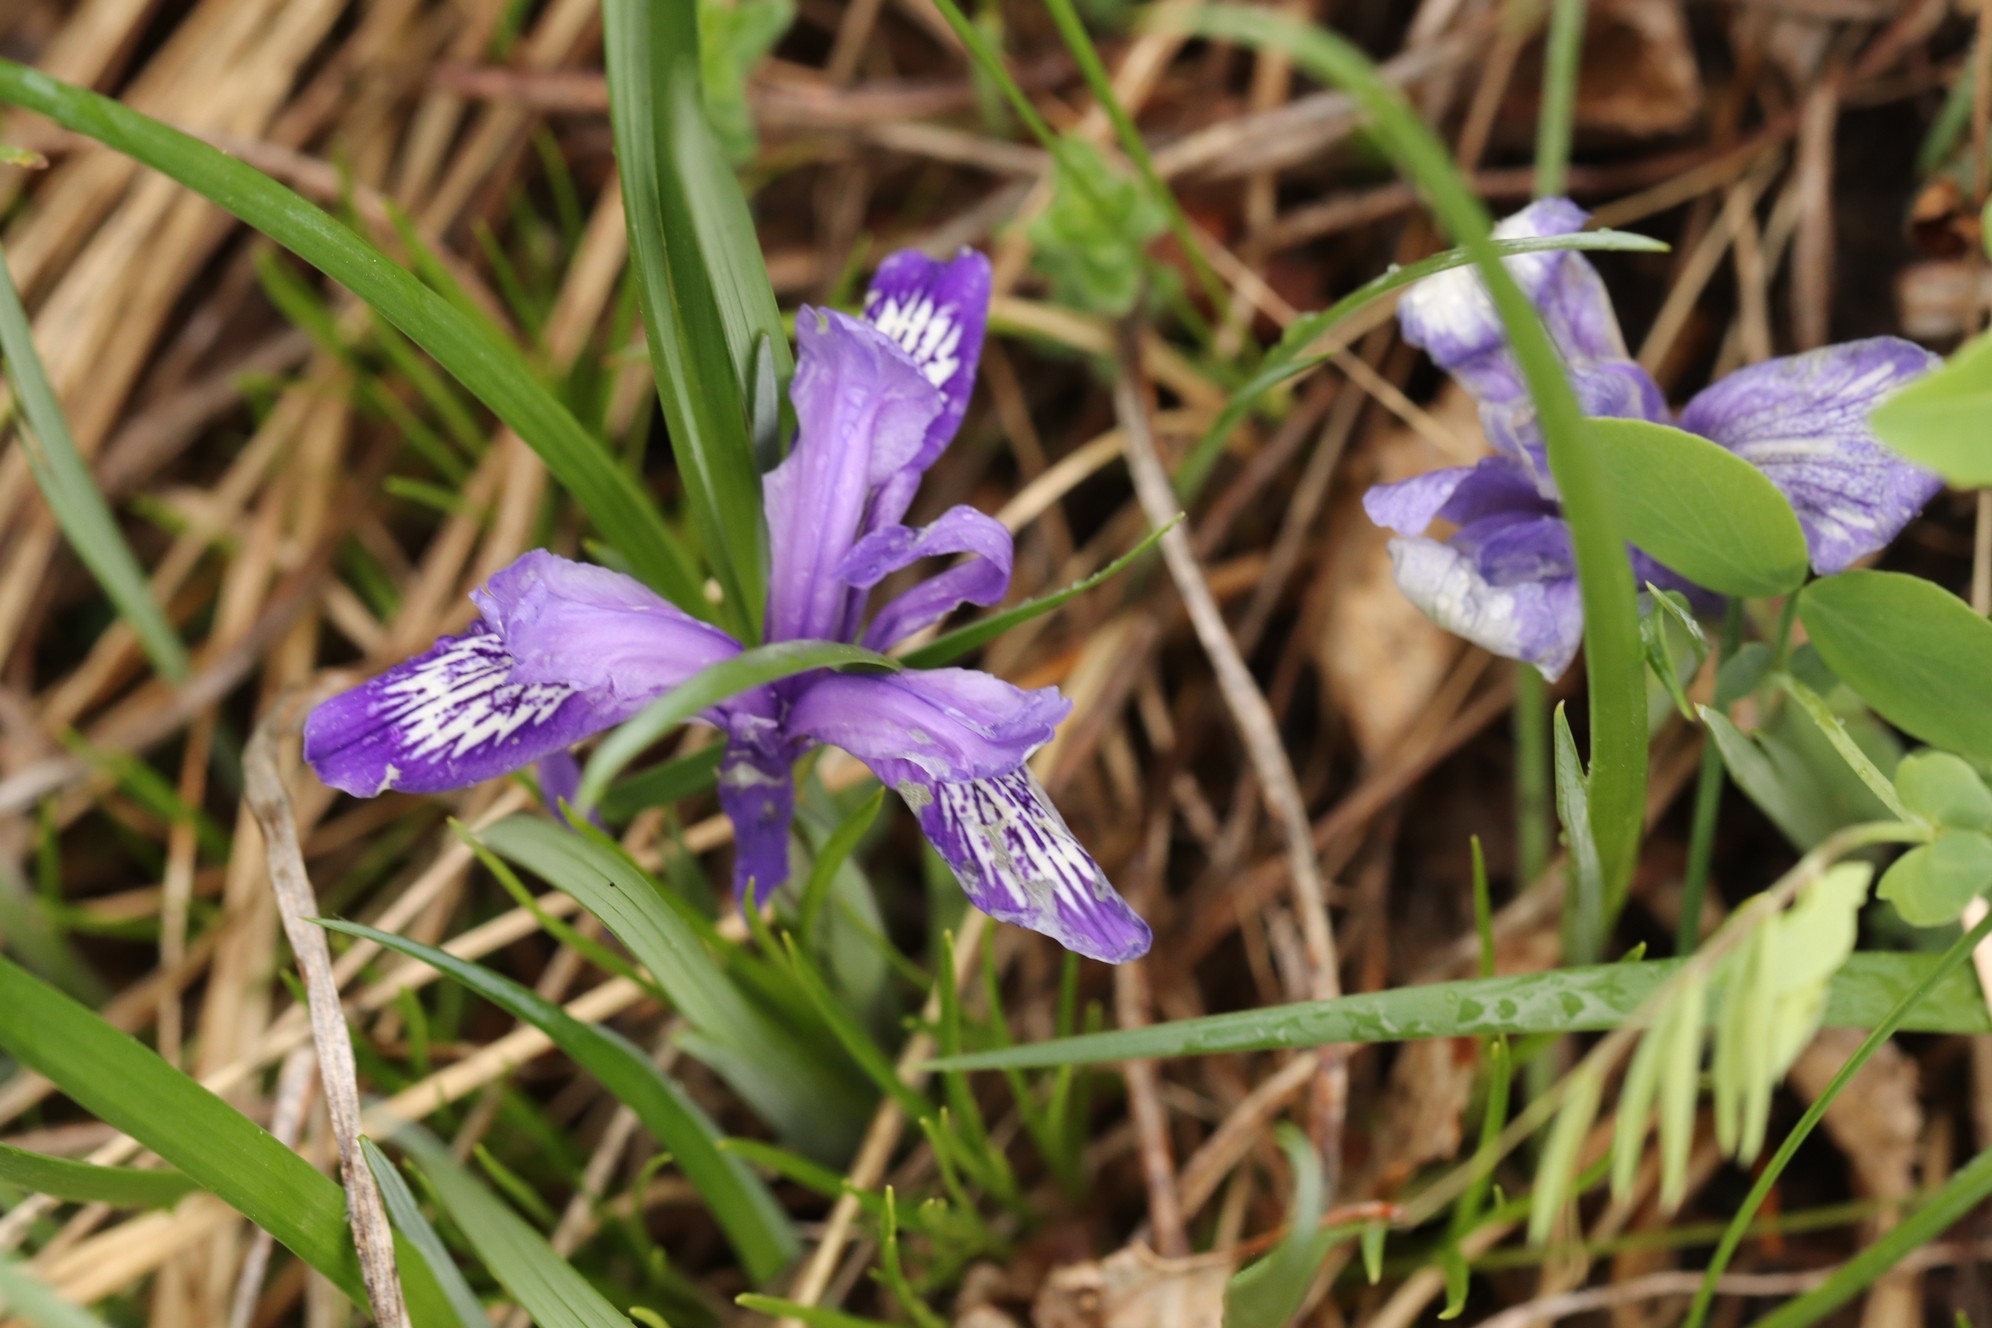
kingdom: Plantae
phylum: Tracheophyta
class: Liliopsida
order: Asparagales
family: Iridaceae
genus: Iris
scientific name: Iris ruthenica
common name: Purple-bract iris
